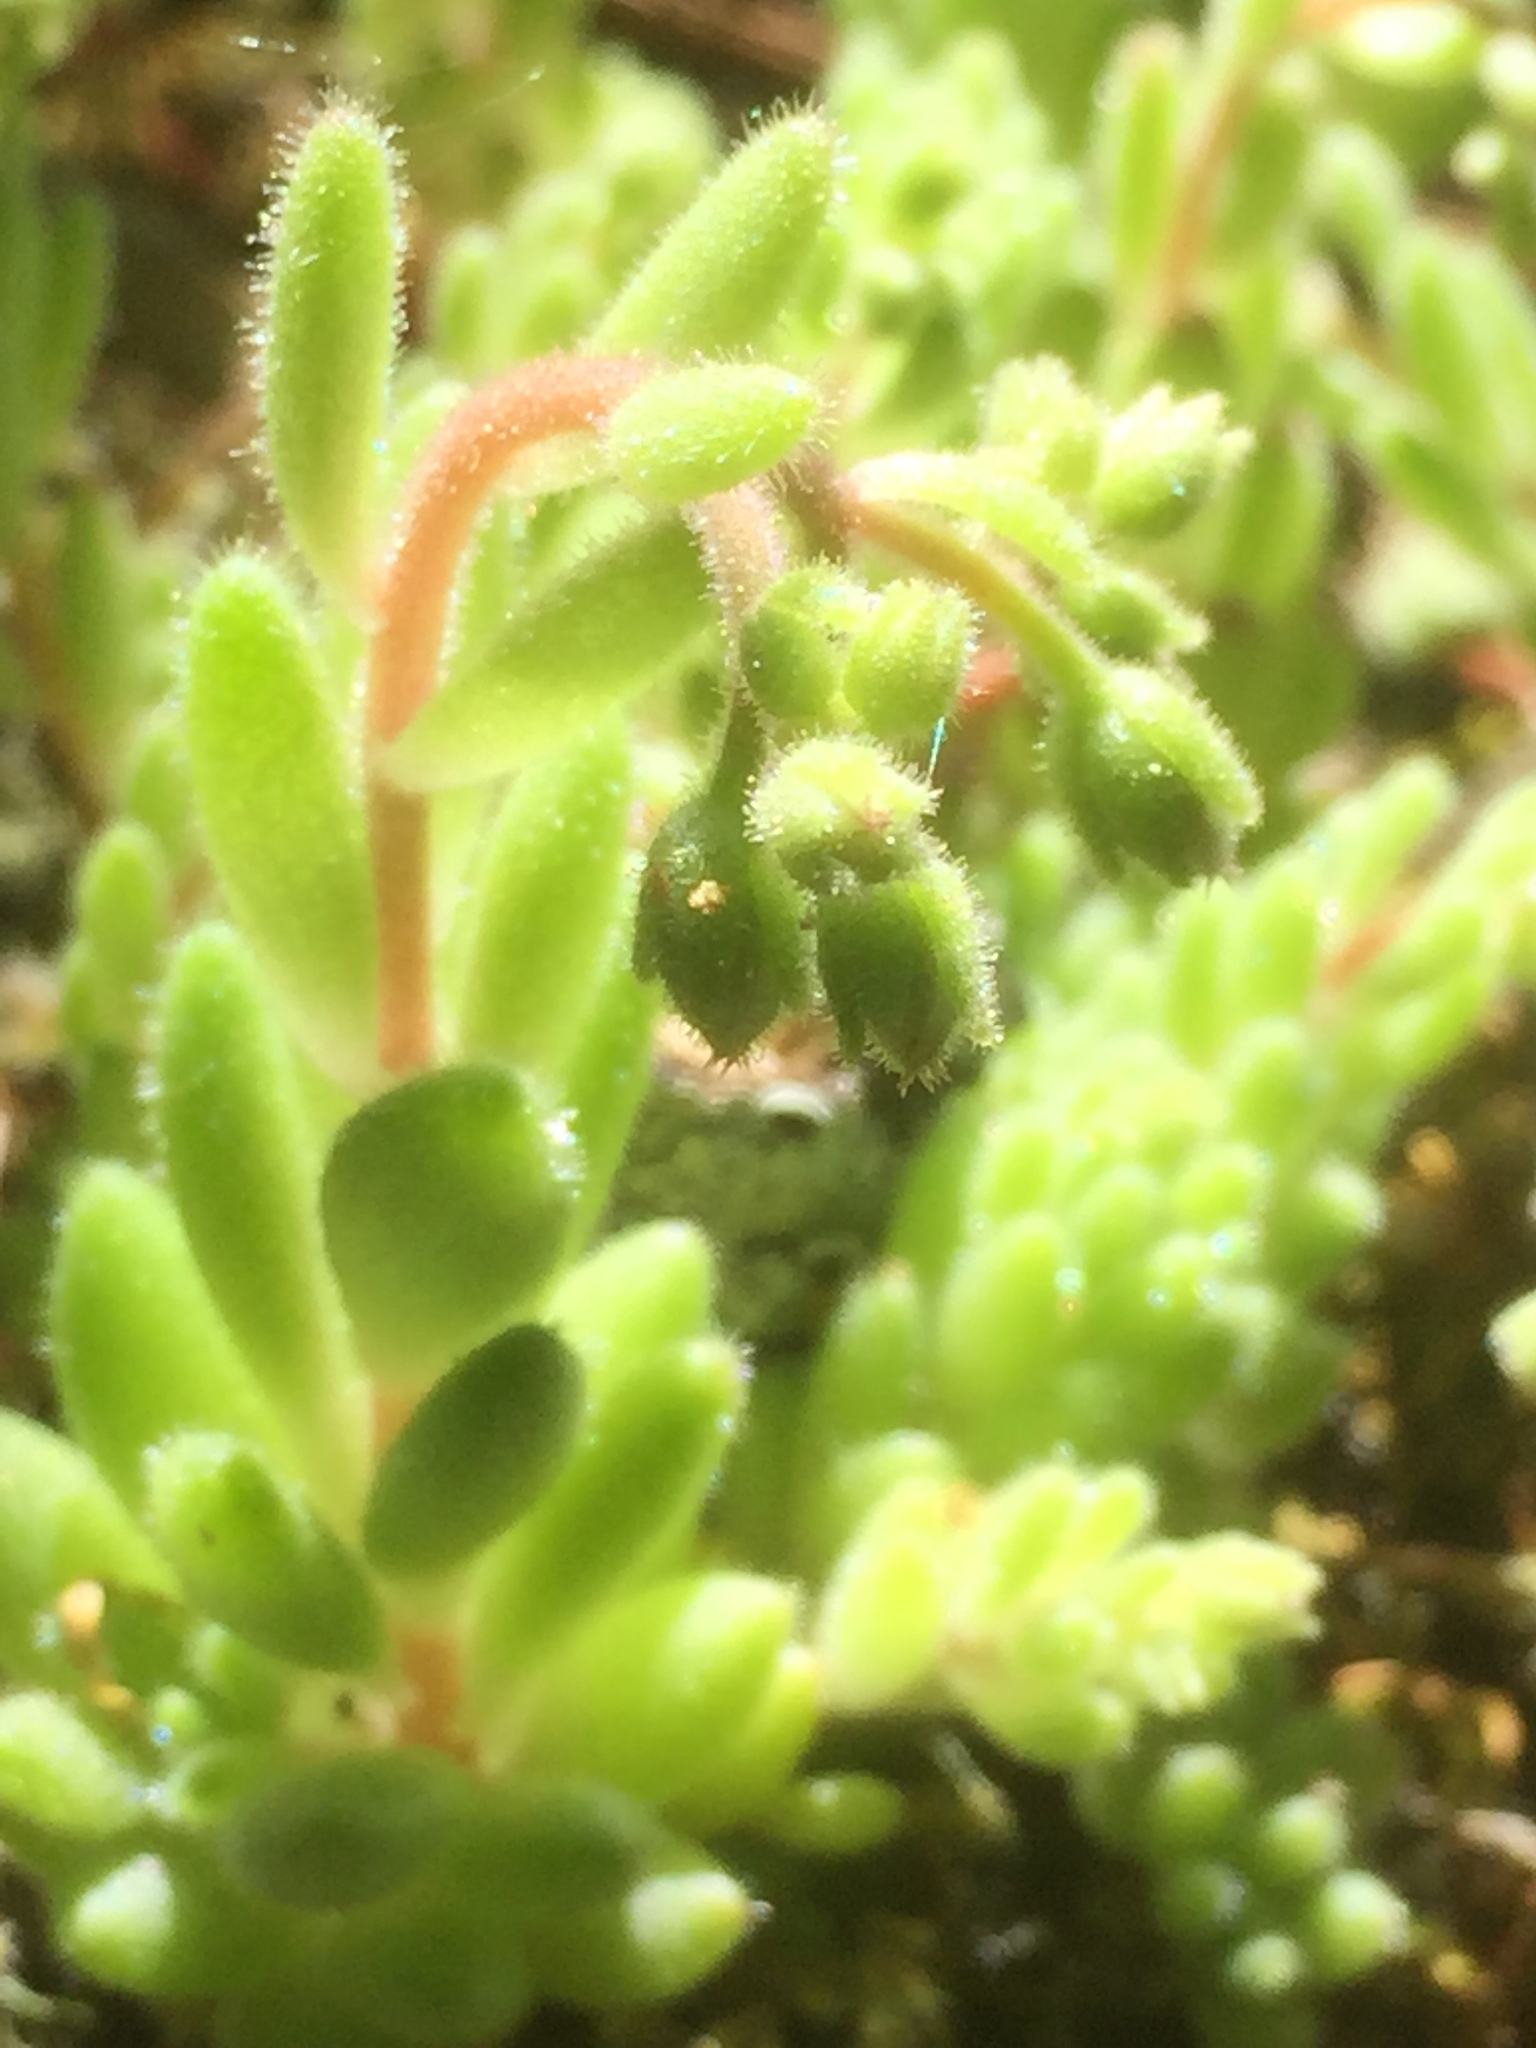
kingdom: Plantae
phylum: Tracheophyta
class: Magnoliopsida
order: Saxifragales
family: Crassulaceae
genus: Sedum
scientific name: Sedum hirsutum
